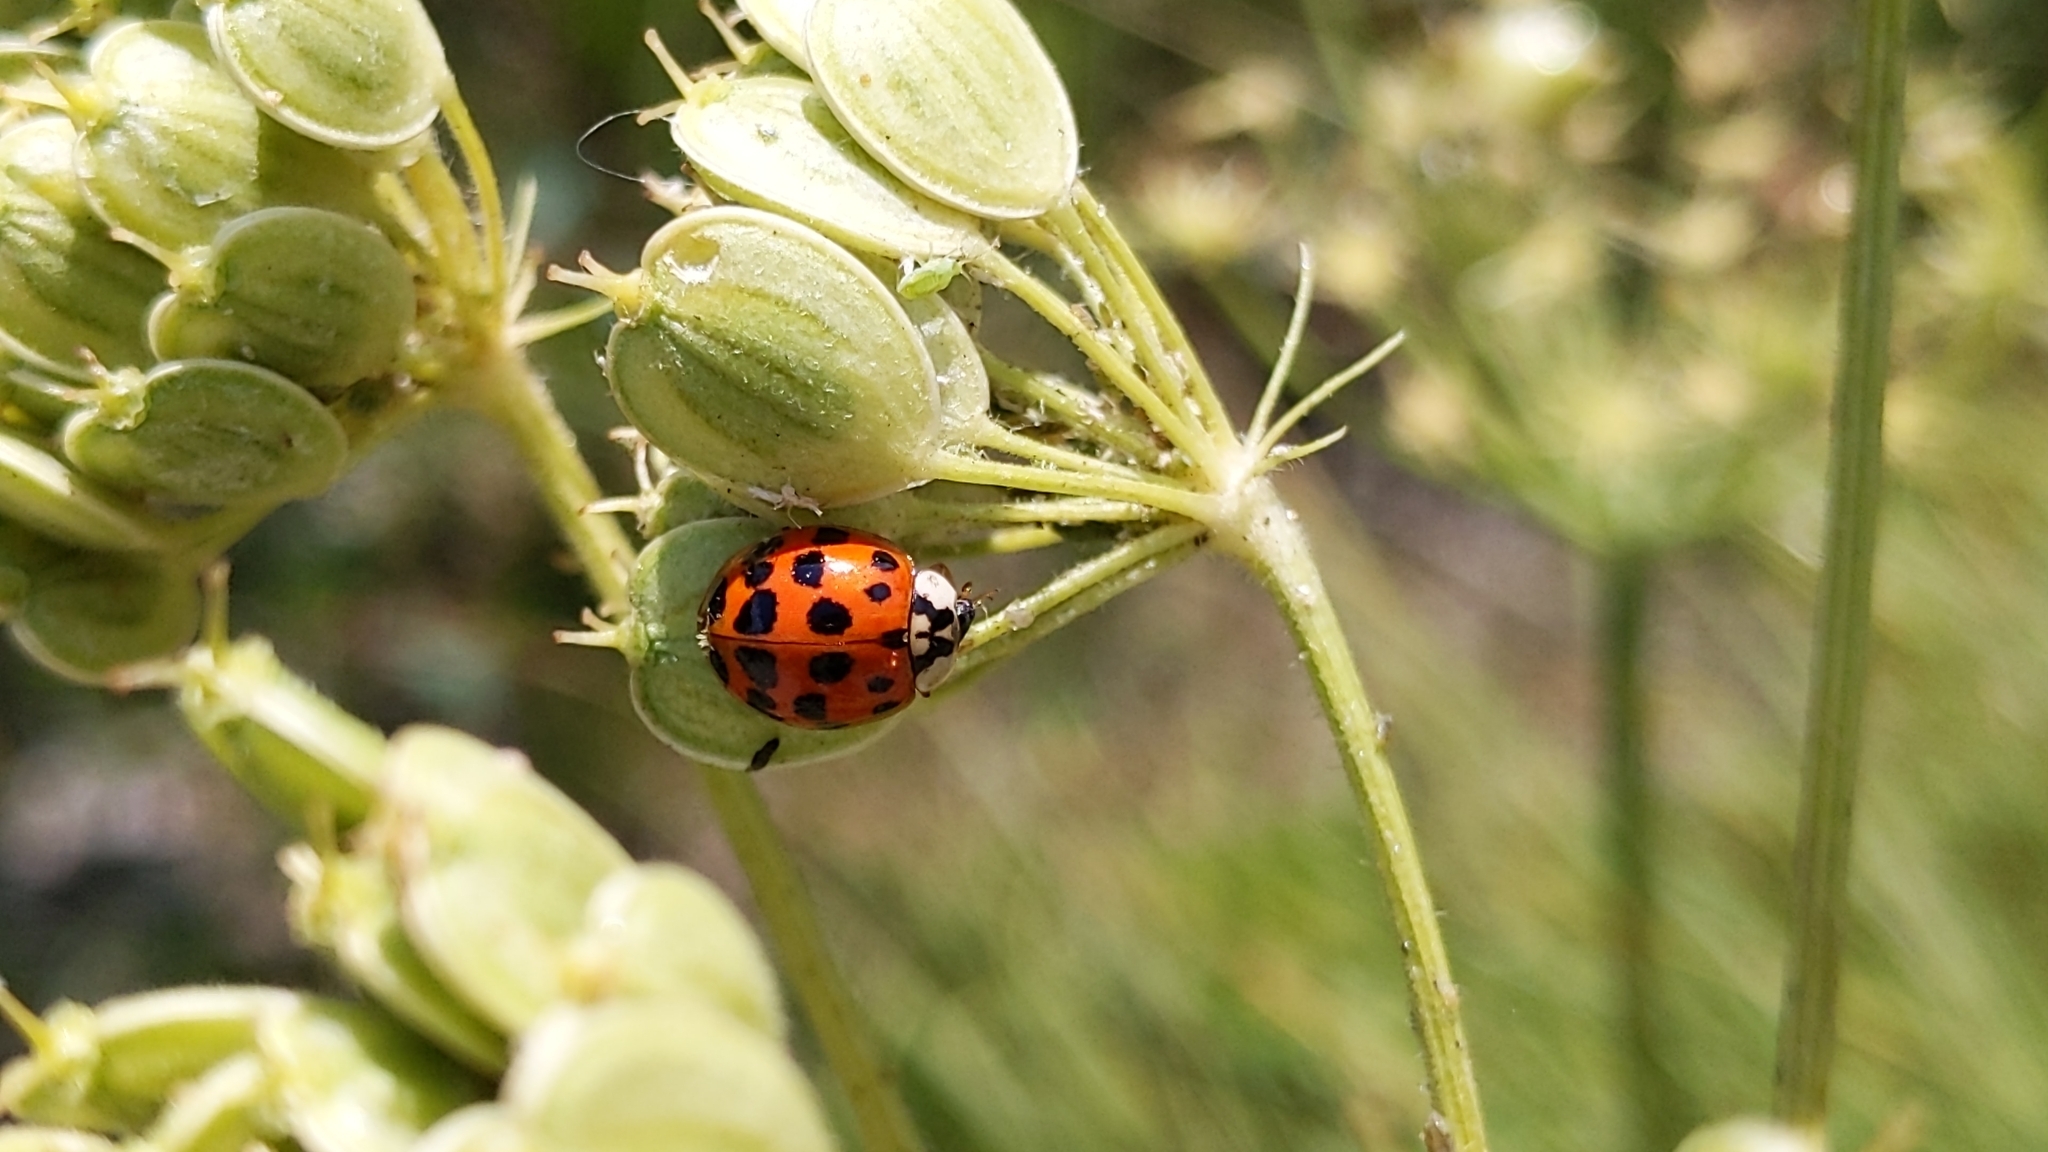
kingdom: Animalia
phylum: Arthropoda
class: Insecta
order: Coleoptera
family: Coccinellidae
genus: Harmonia
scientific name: Harmonia axyridis
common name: Harlequin ladybird
